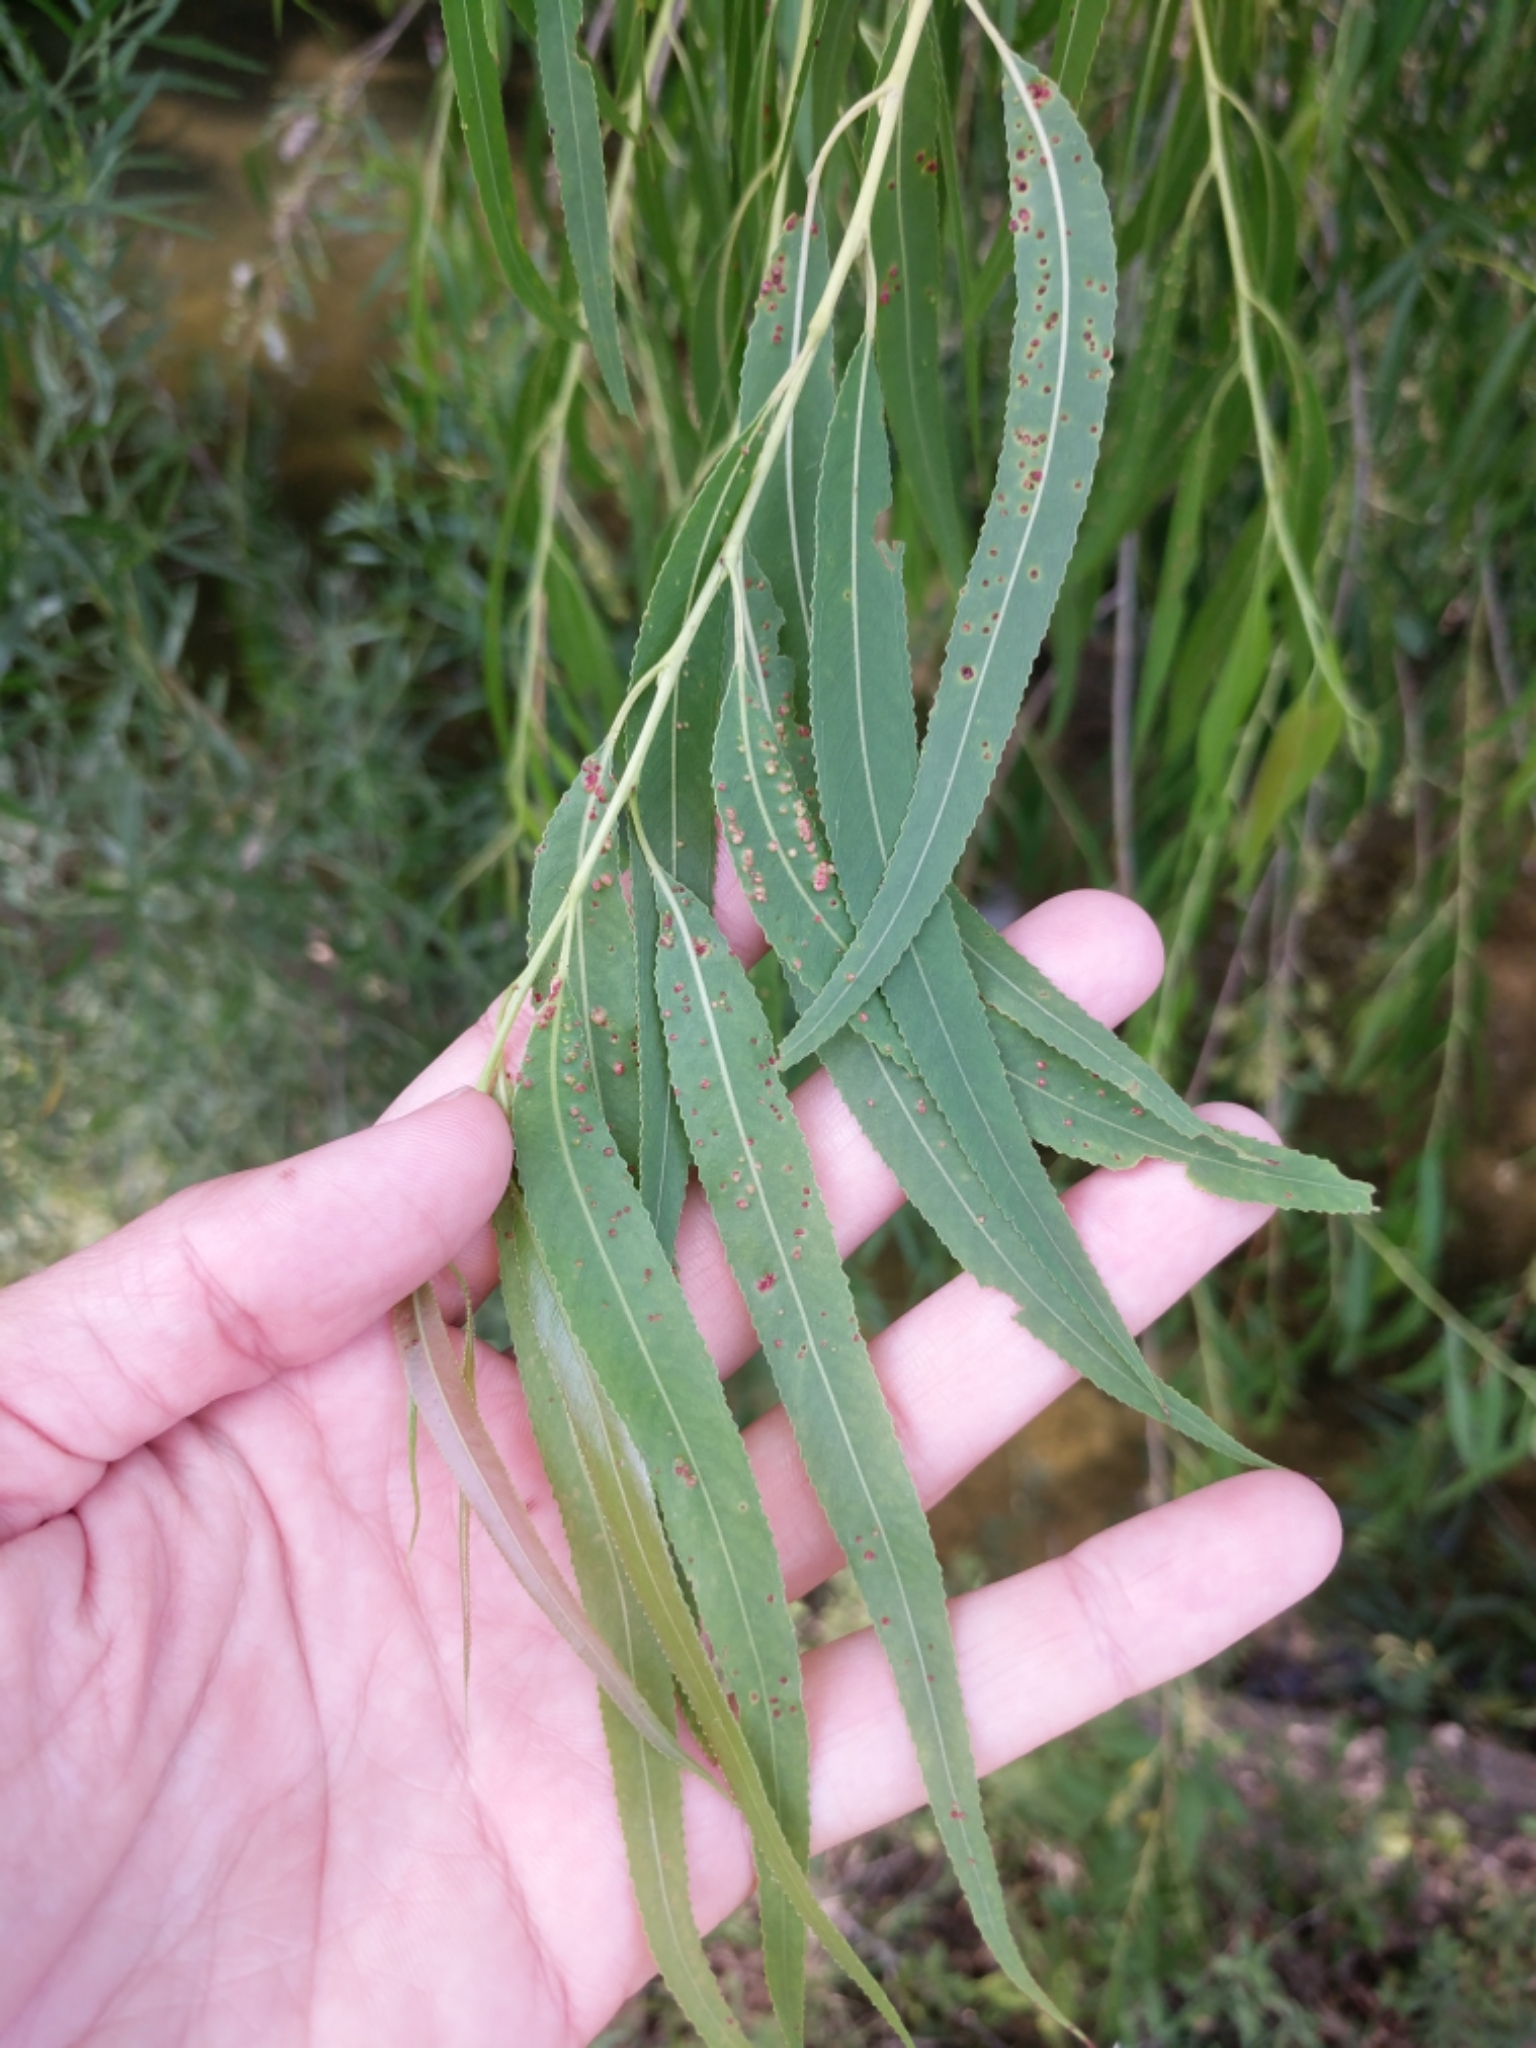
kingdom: Plantae
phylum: Tracheophyta
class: Magnoliopsida
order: Malpighiales
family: Salicaceae
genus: Salix
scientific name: Salix nigra
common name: Black willow
